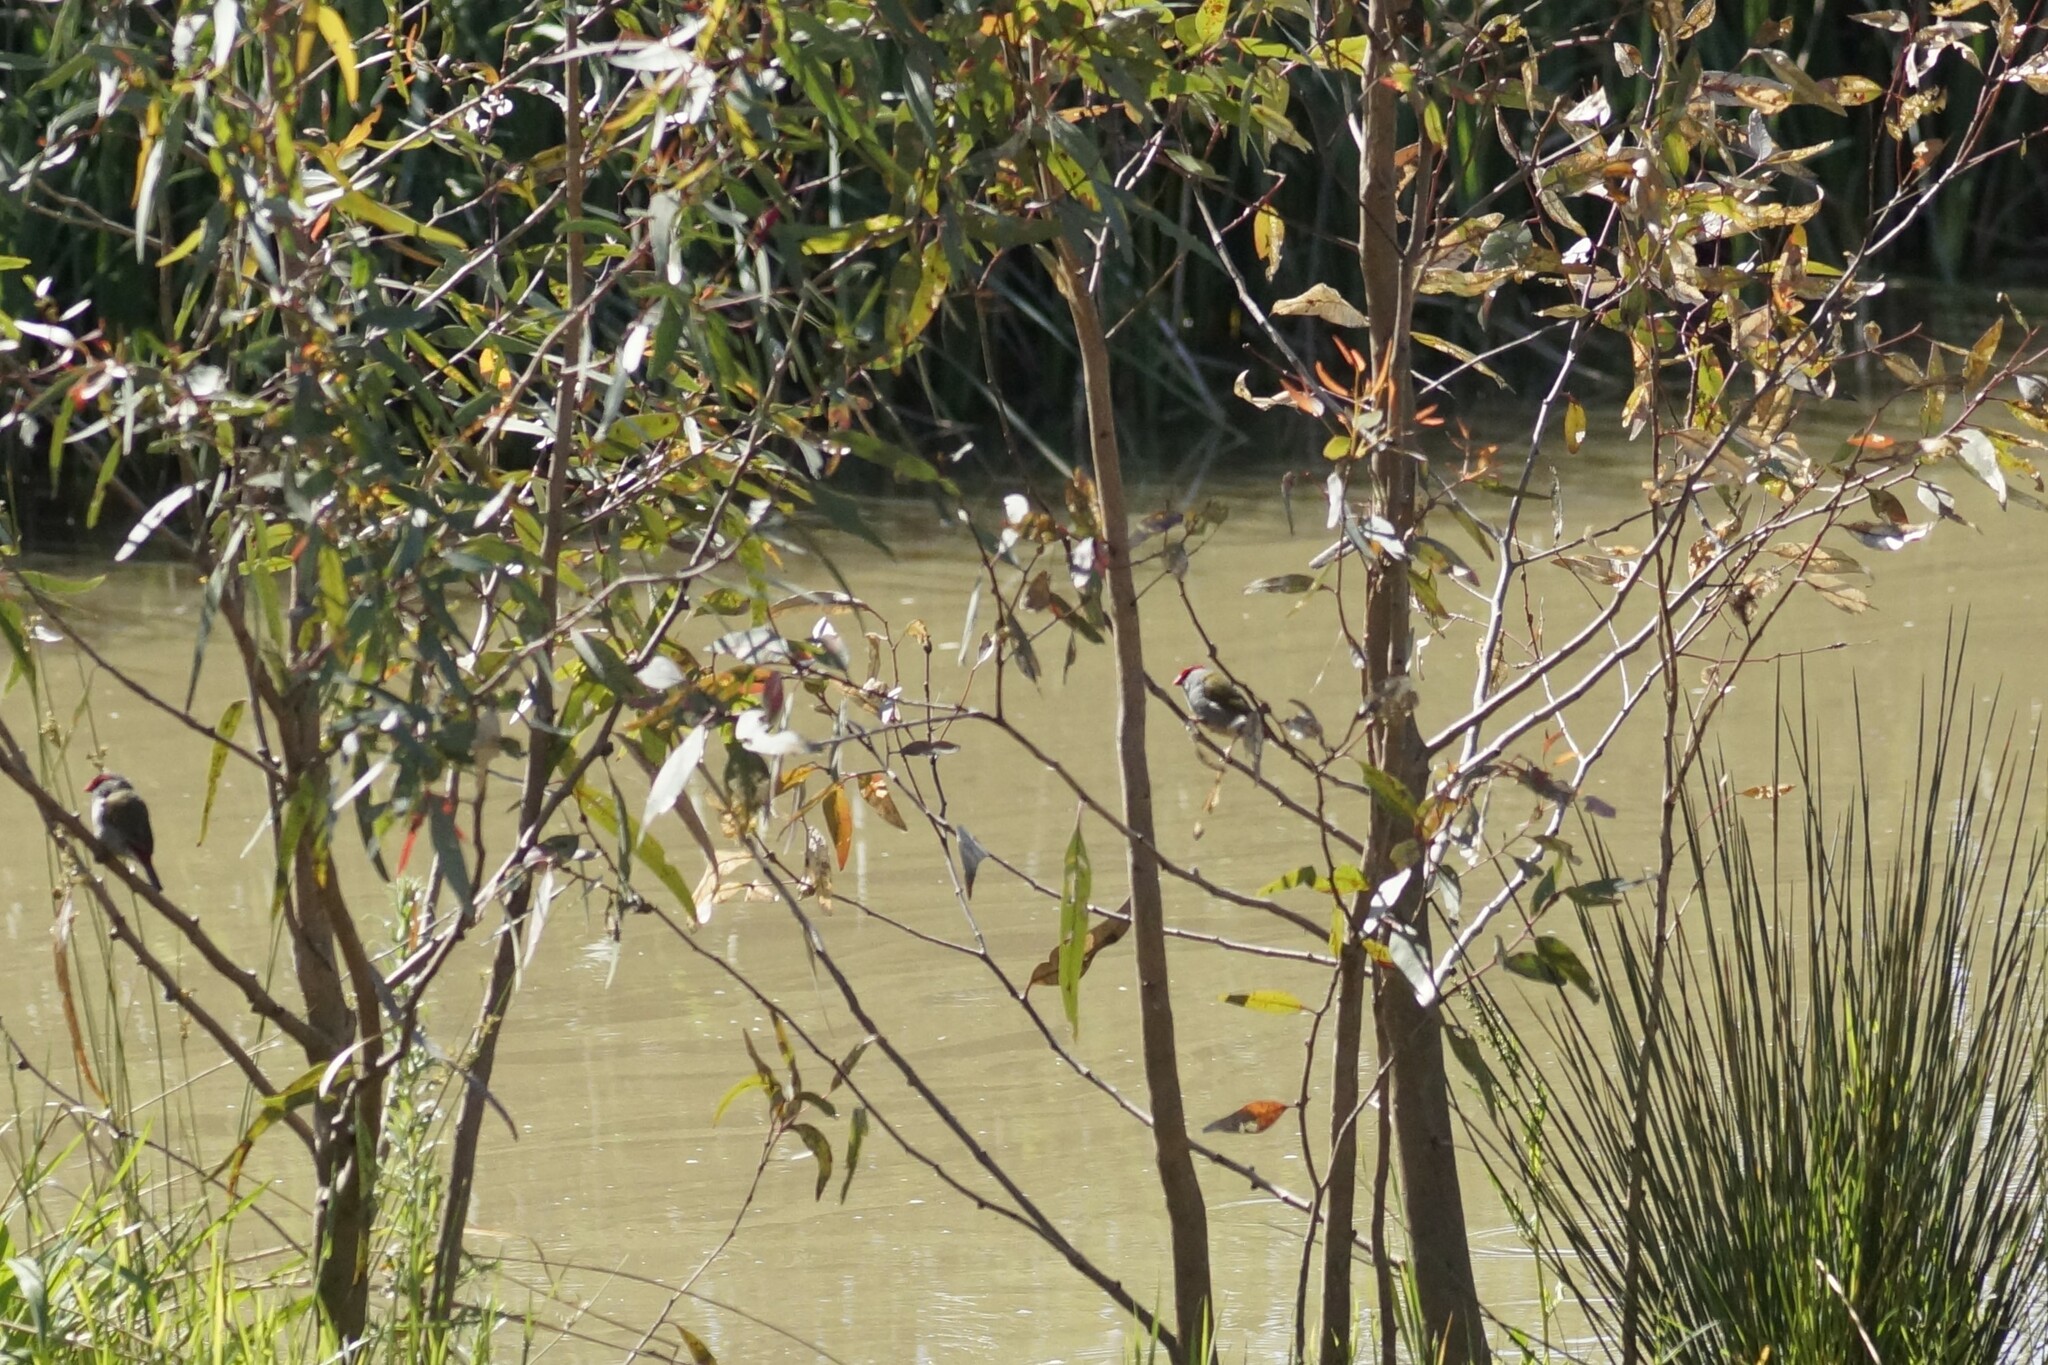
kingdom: Animalia
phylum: Chordata
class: Aves
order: Passeriformes
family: Estrildidae
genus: Neochmia
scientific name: Neochmia temporalis
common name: Red-browed finch
